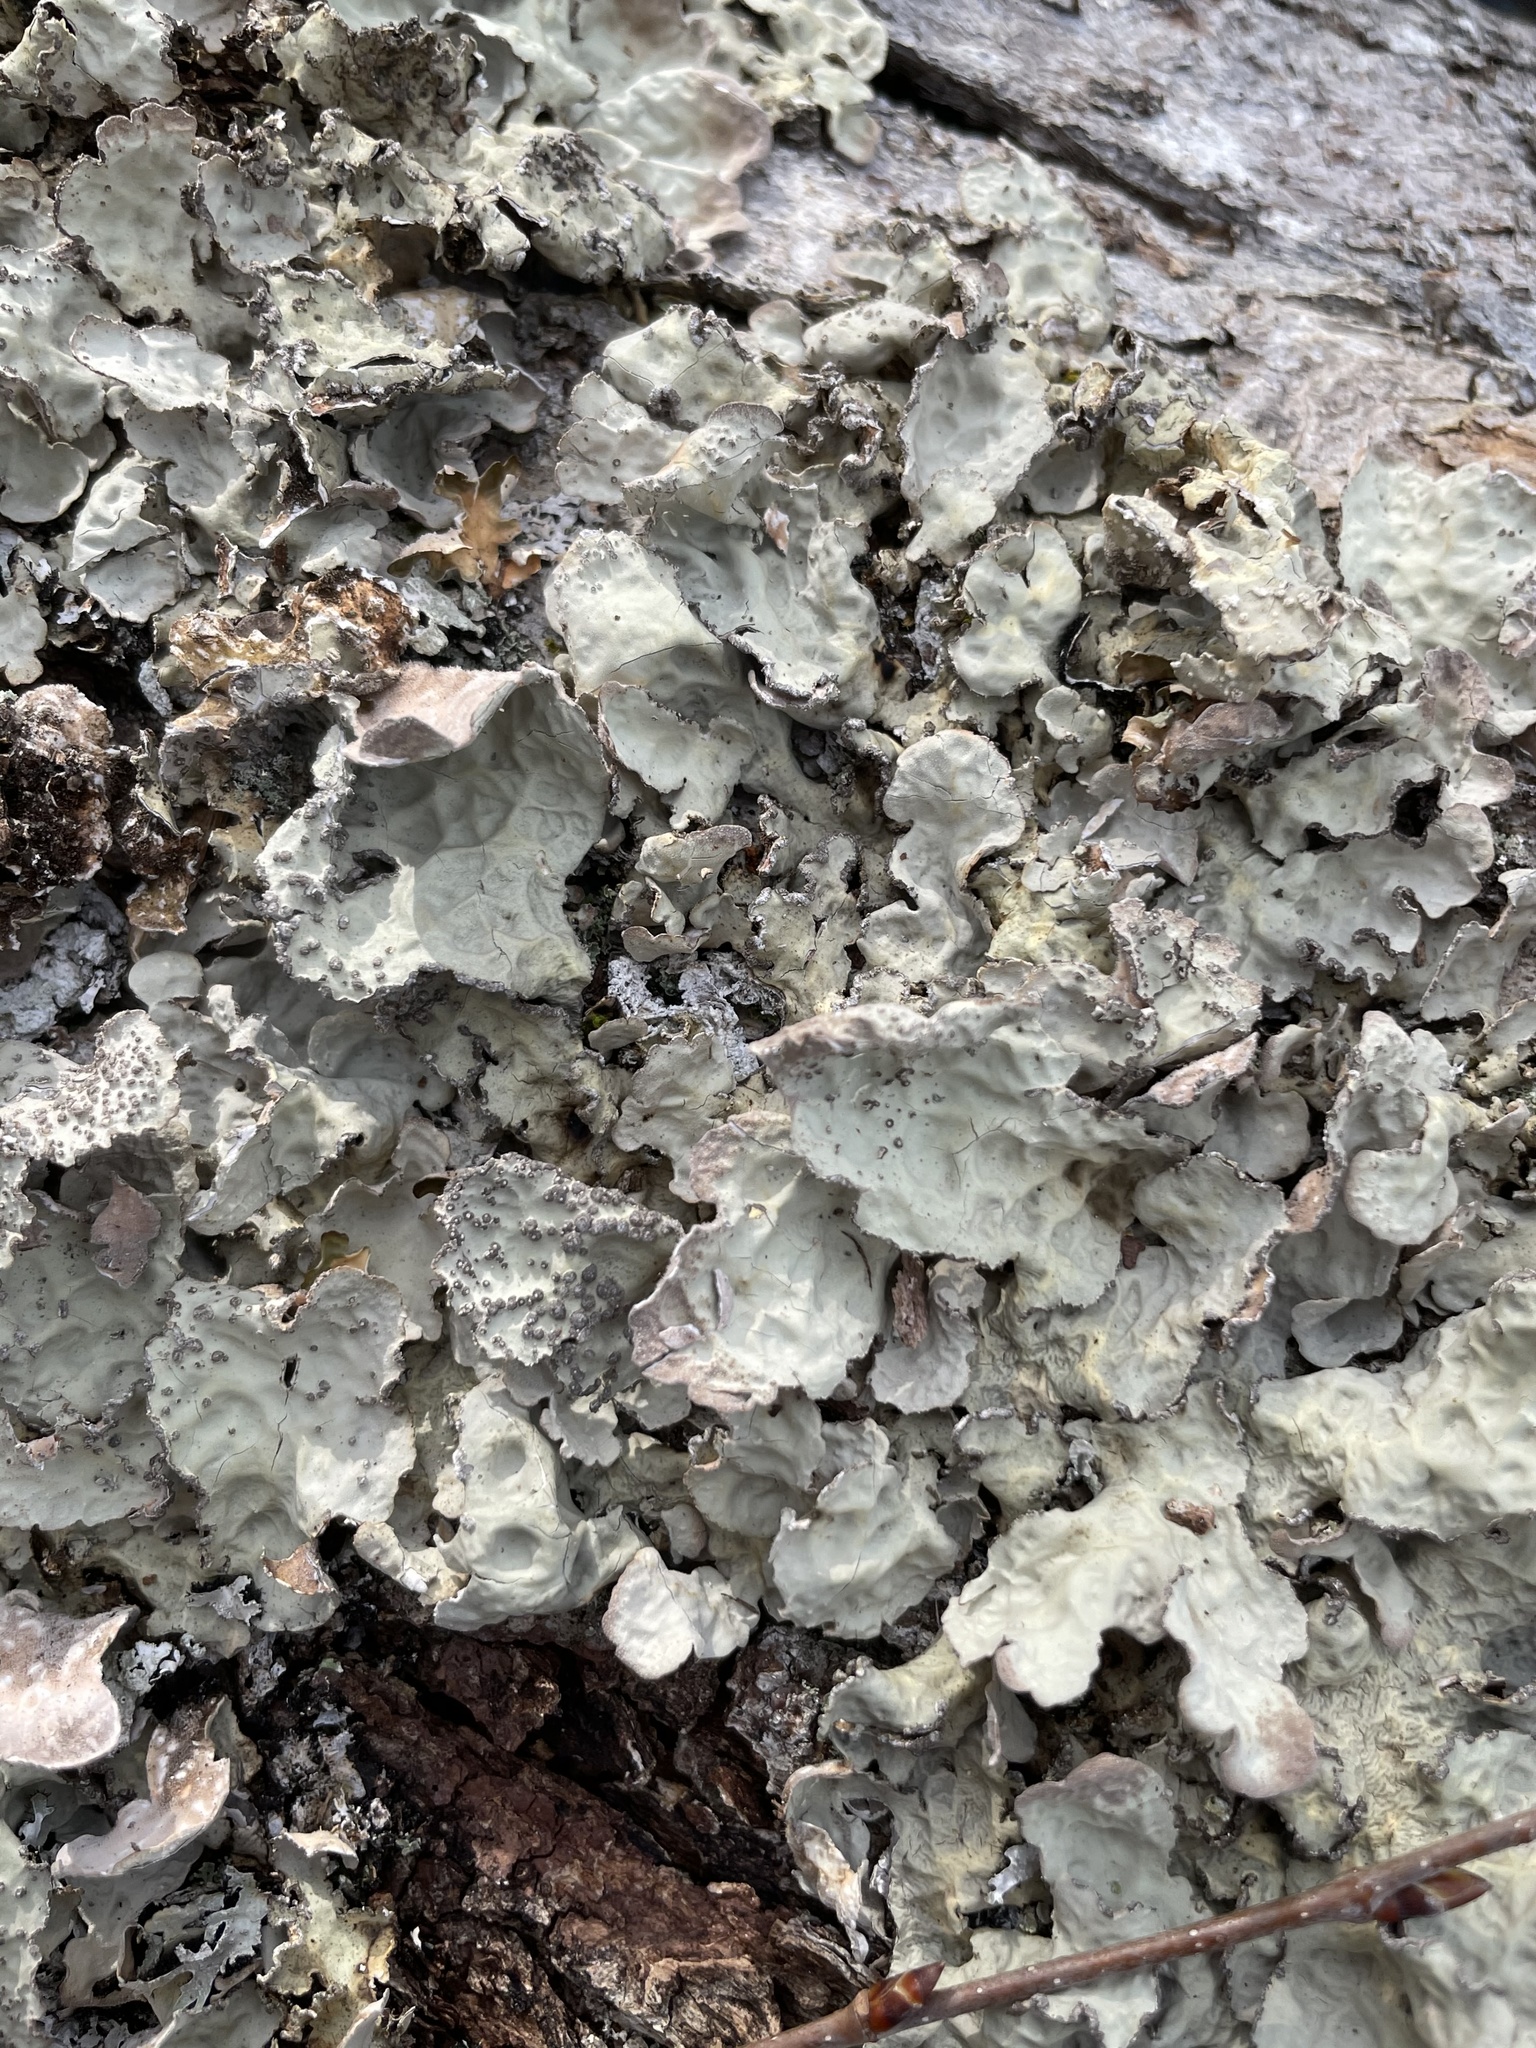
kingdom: Fungi
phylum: Ascomycota
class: Lecanoromycetes
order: Peltigerales
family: Lobariaceae
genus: Lobarina
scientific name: Lobarina scrobiculata
